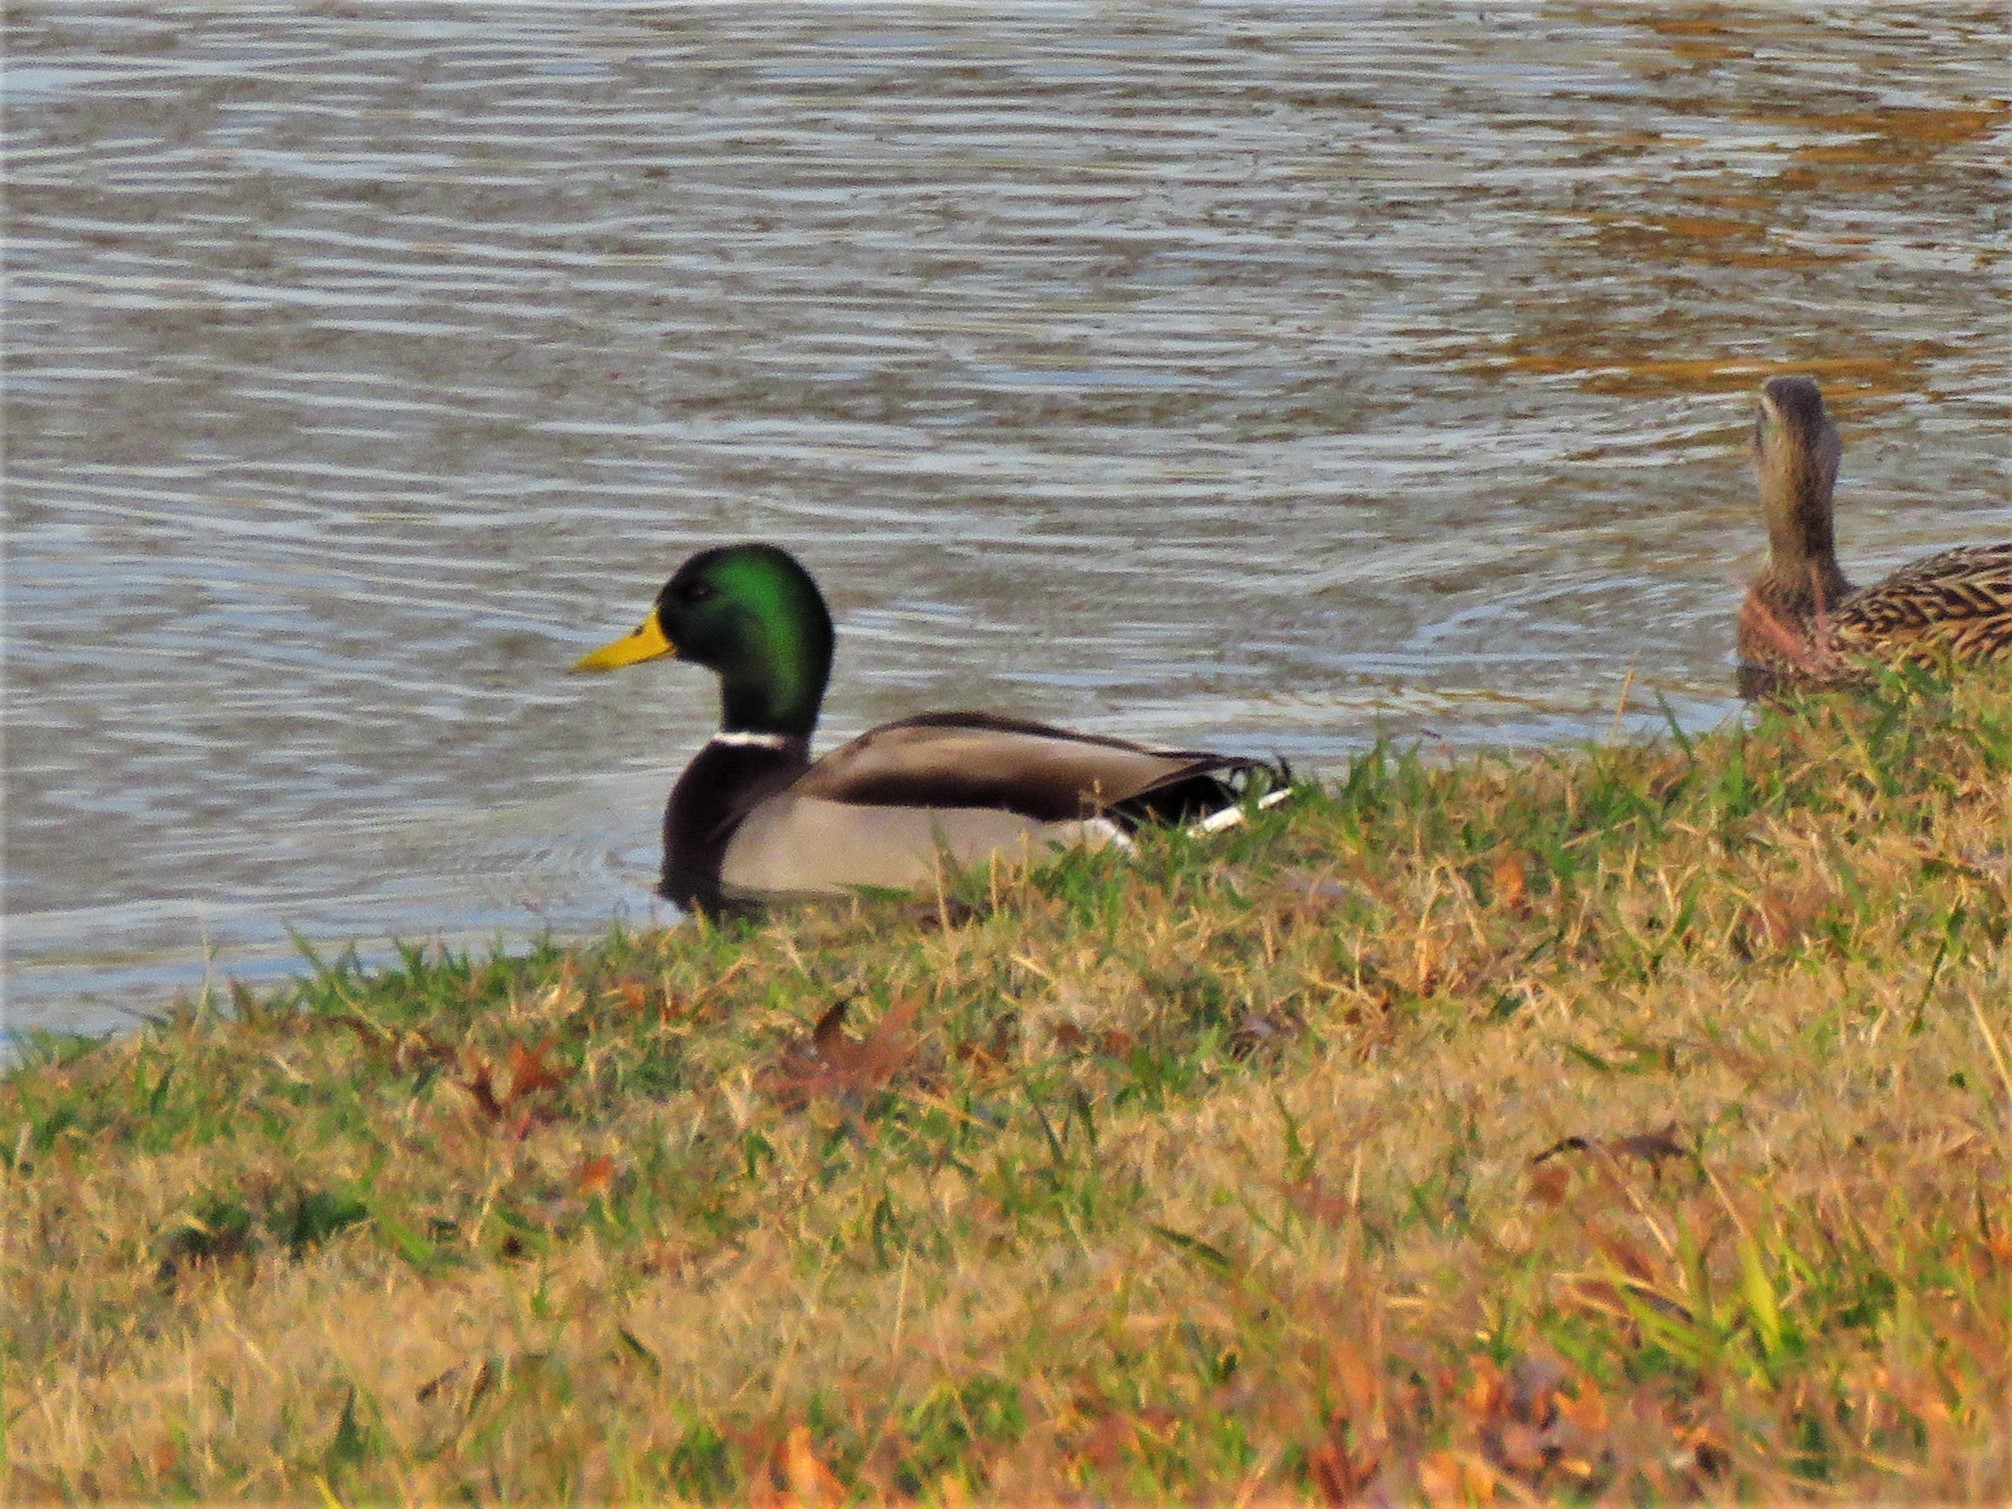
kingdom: Animalia
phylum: Chordata
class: Aves
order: Anseriformes
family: Anatidae
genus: Anas
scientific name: Anas platyrhynchos
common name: Mallard
